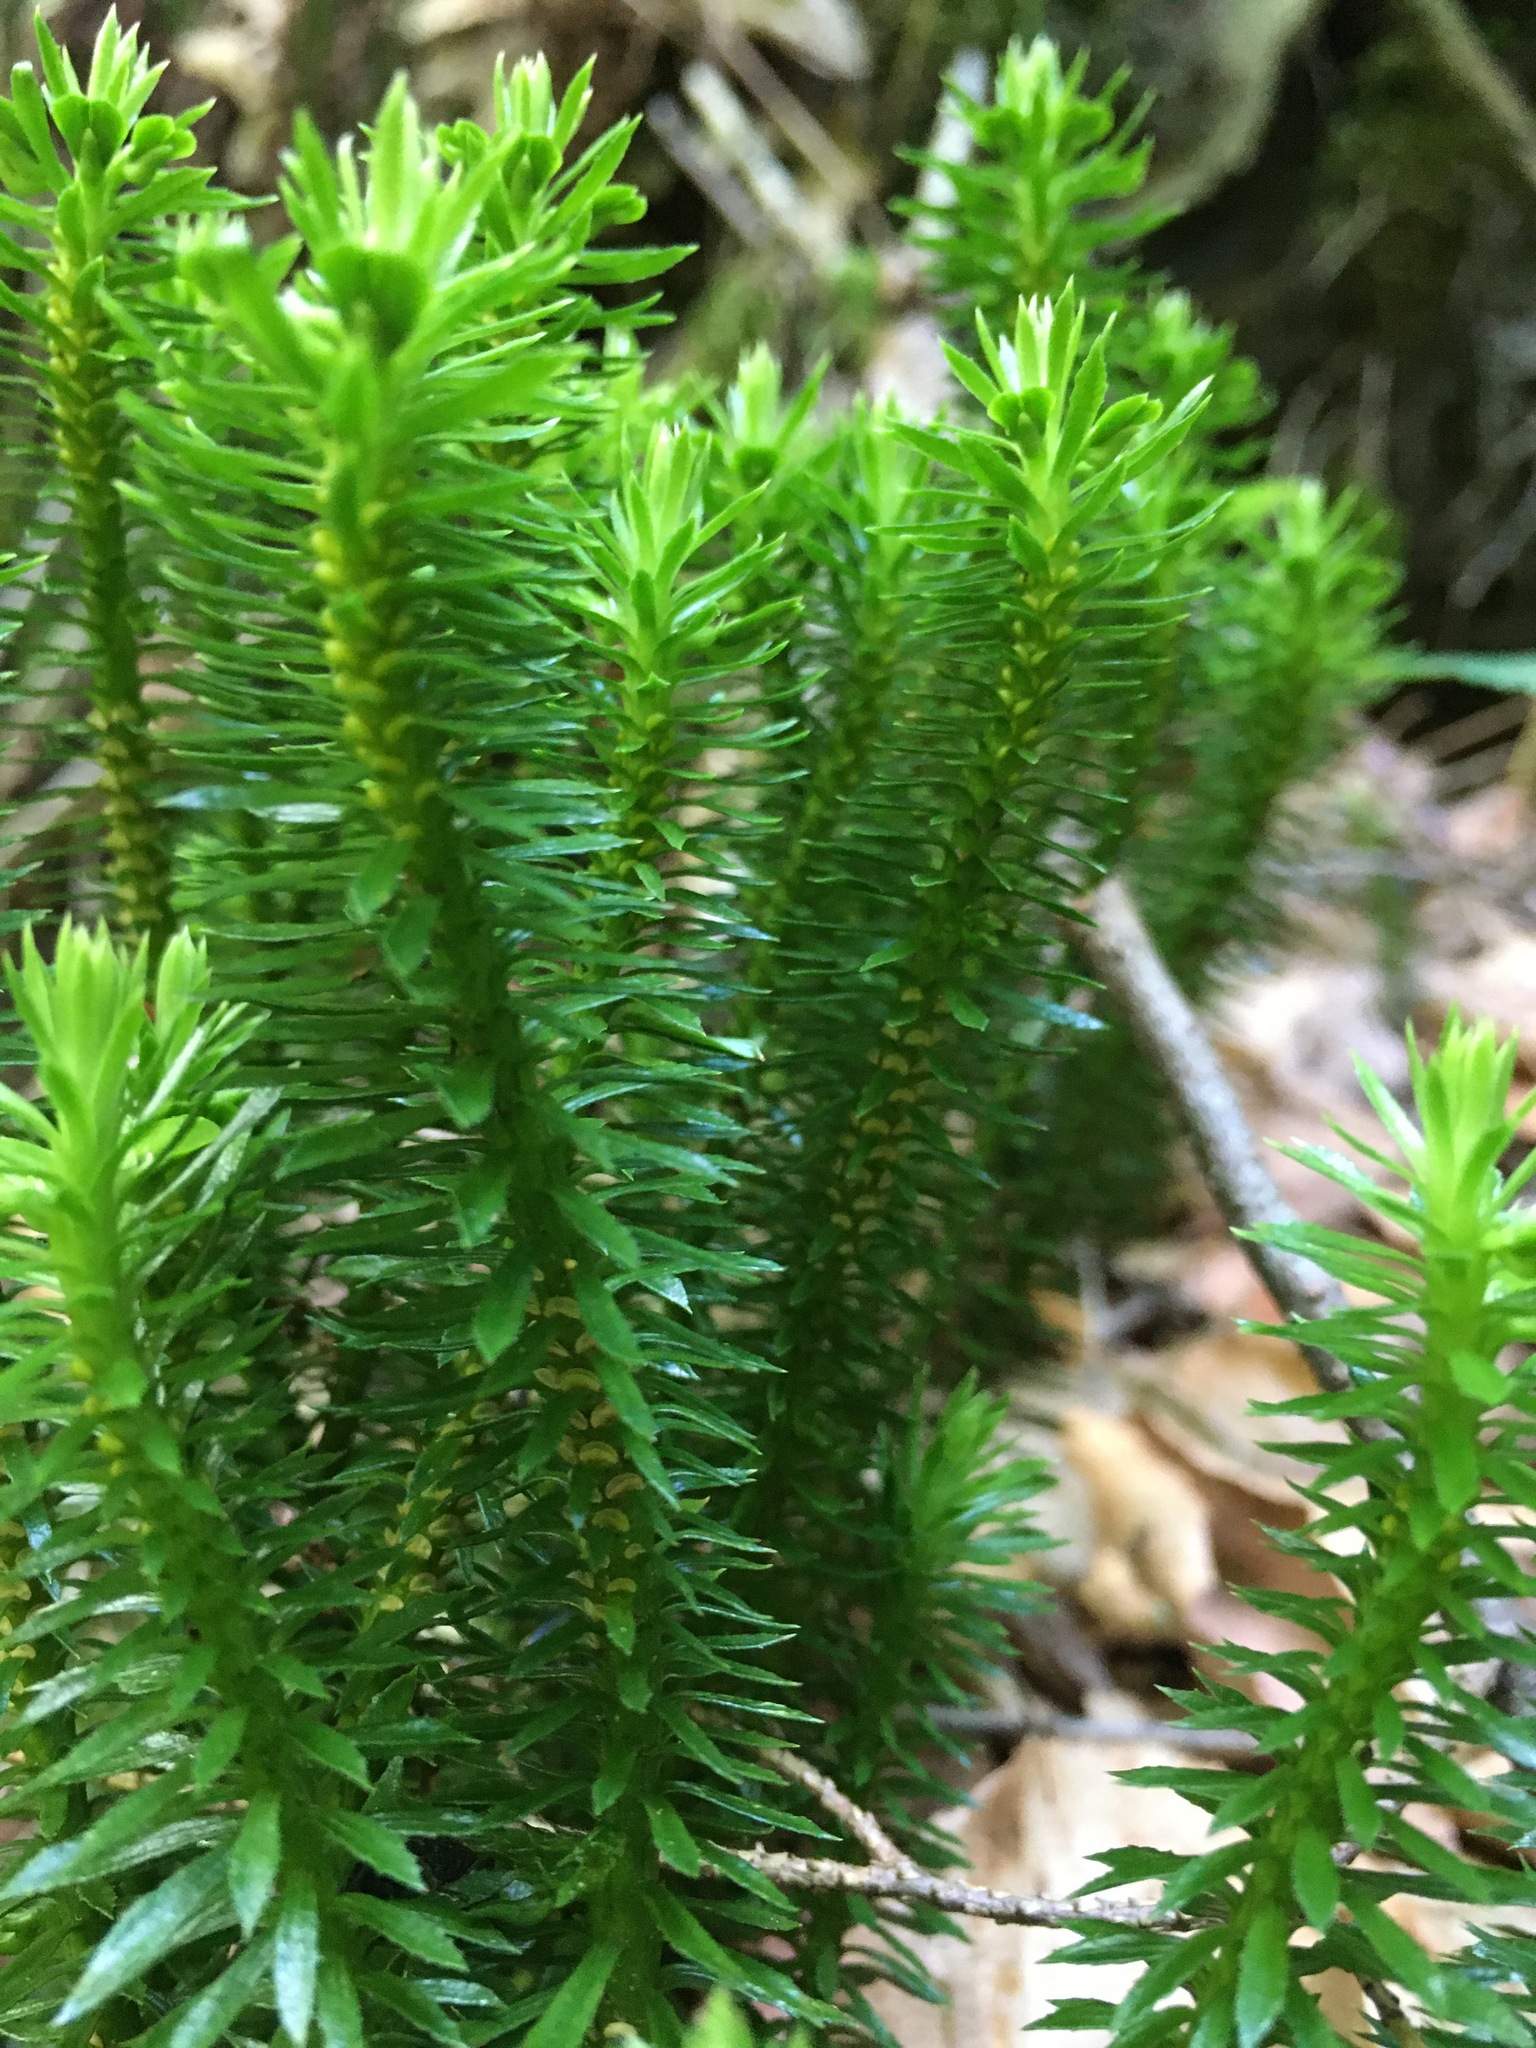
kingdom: Plantae
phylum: Tracheophyta
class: Lycopodiopsida
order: Lycopodiales
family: Lycopodiaceae
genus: Huperzia
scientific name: Huperzia lucidula
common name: Shining clubmoss
